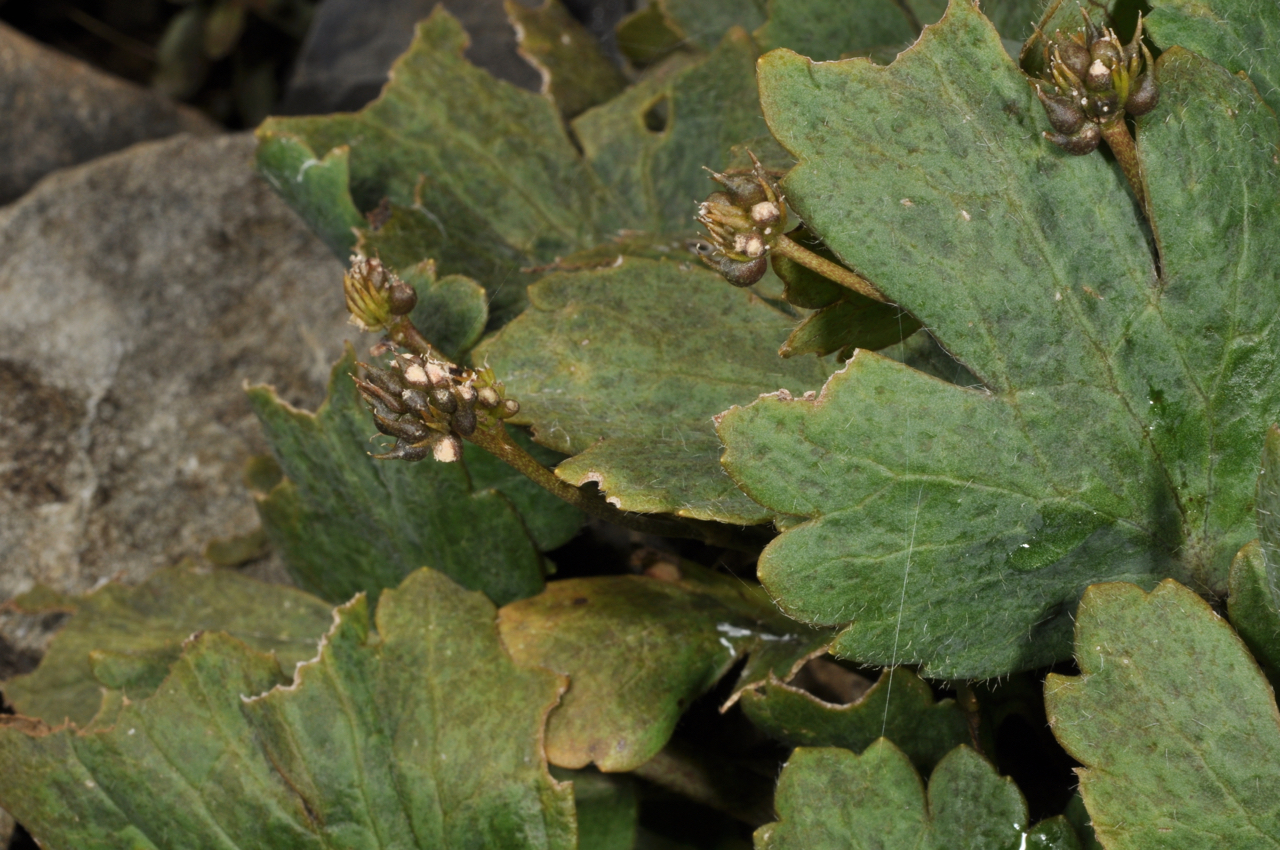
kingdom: Plantae
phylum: Tracheophyta
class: Magnoliopsida
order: Ranunculales
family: Ranunculaceae
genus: Ranunculus
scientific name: Ranunculus huttensis
